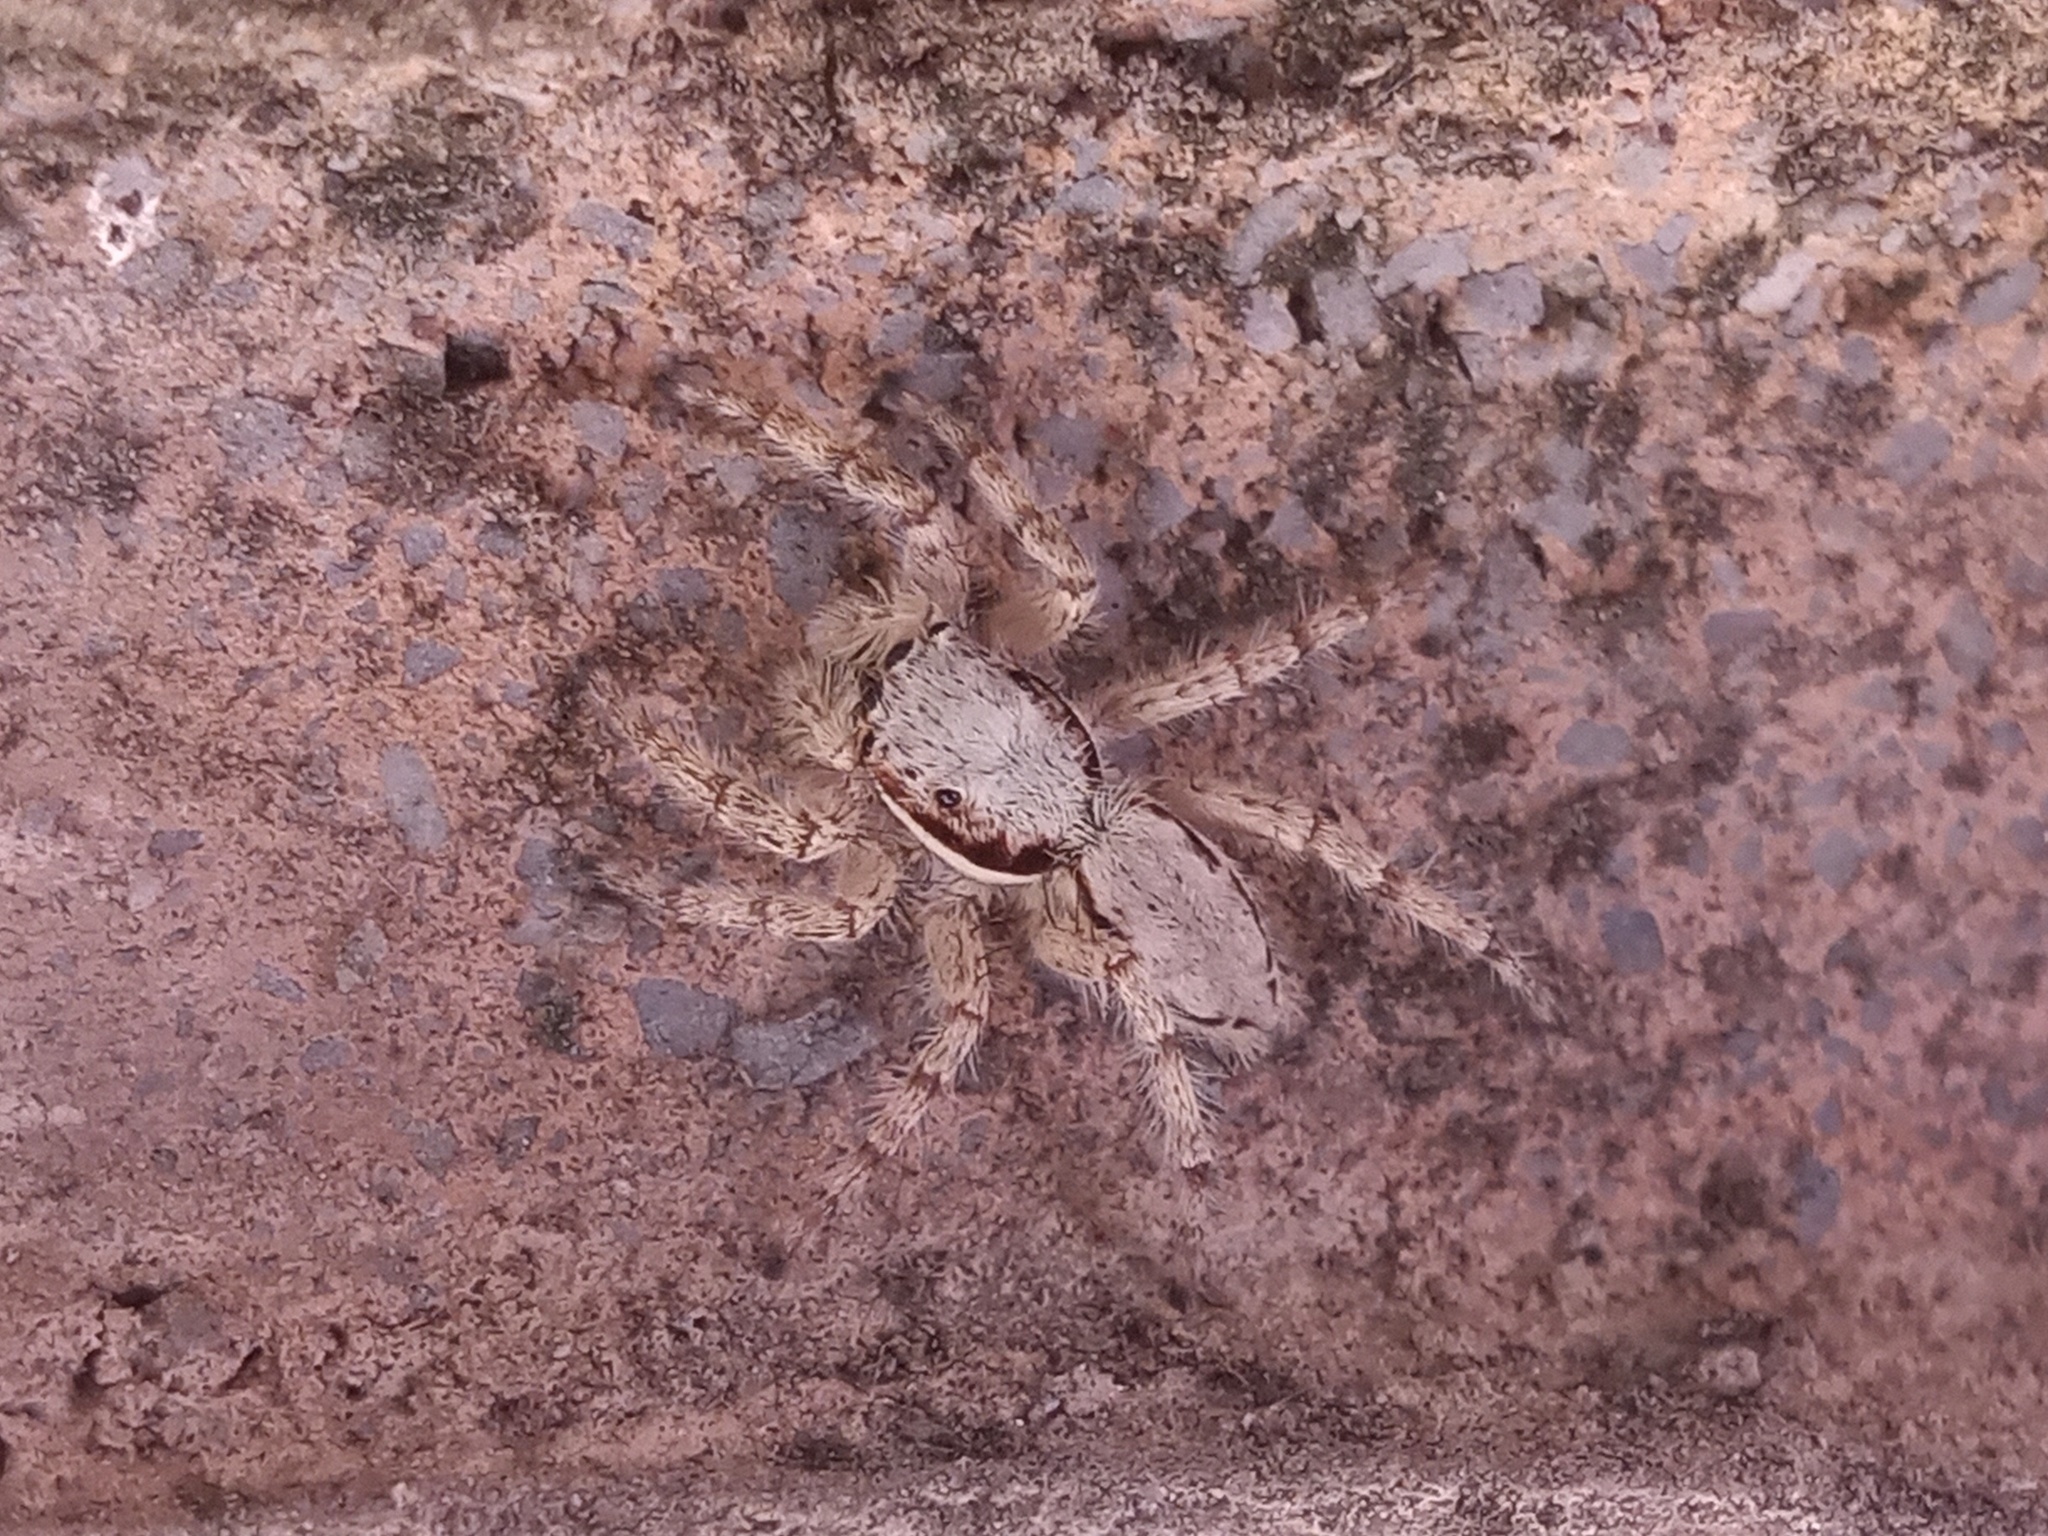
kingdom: Animalia
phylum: Arthropoda
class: Arachnida
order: Araneae
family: Salticidae
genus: Menemerus
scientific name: Menemerus bivittatus
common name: Gray wall jumper
